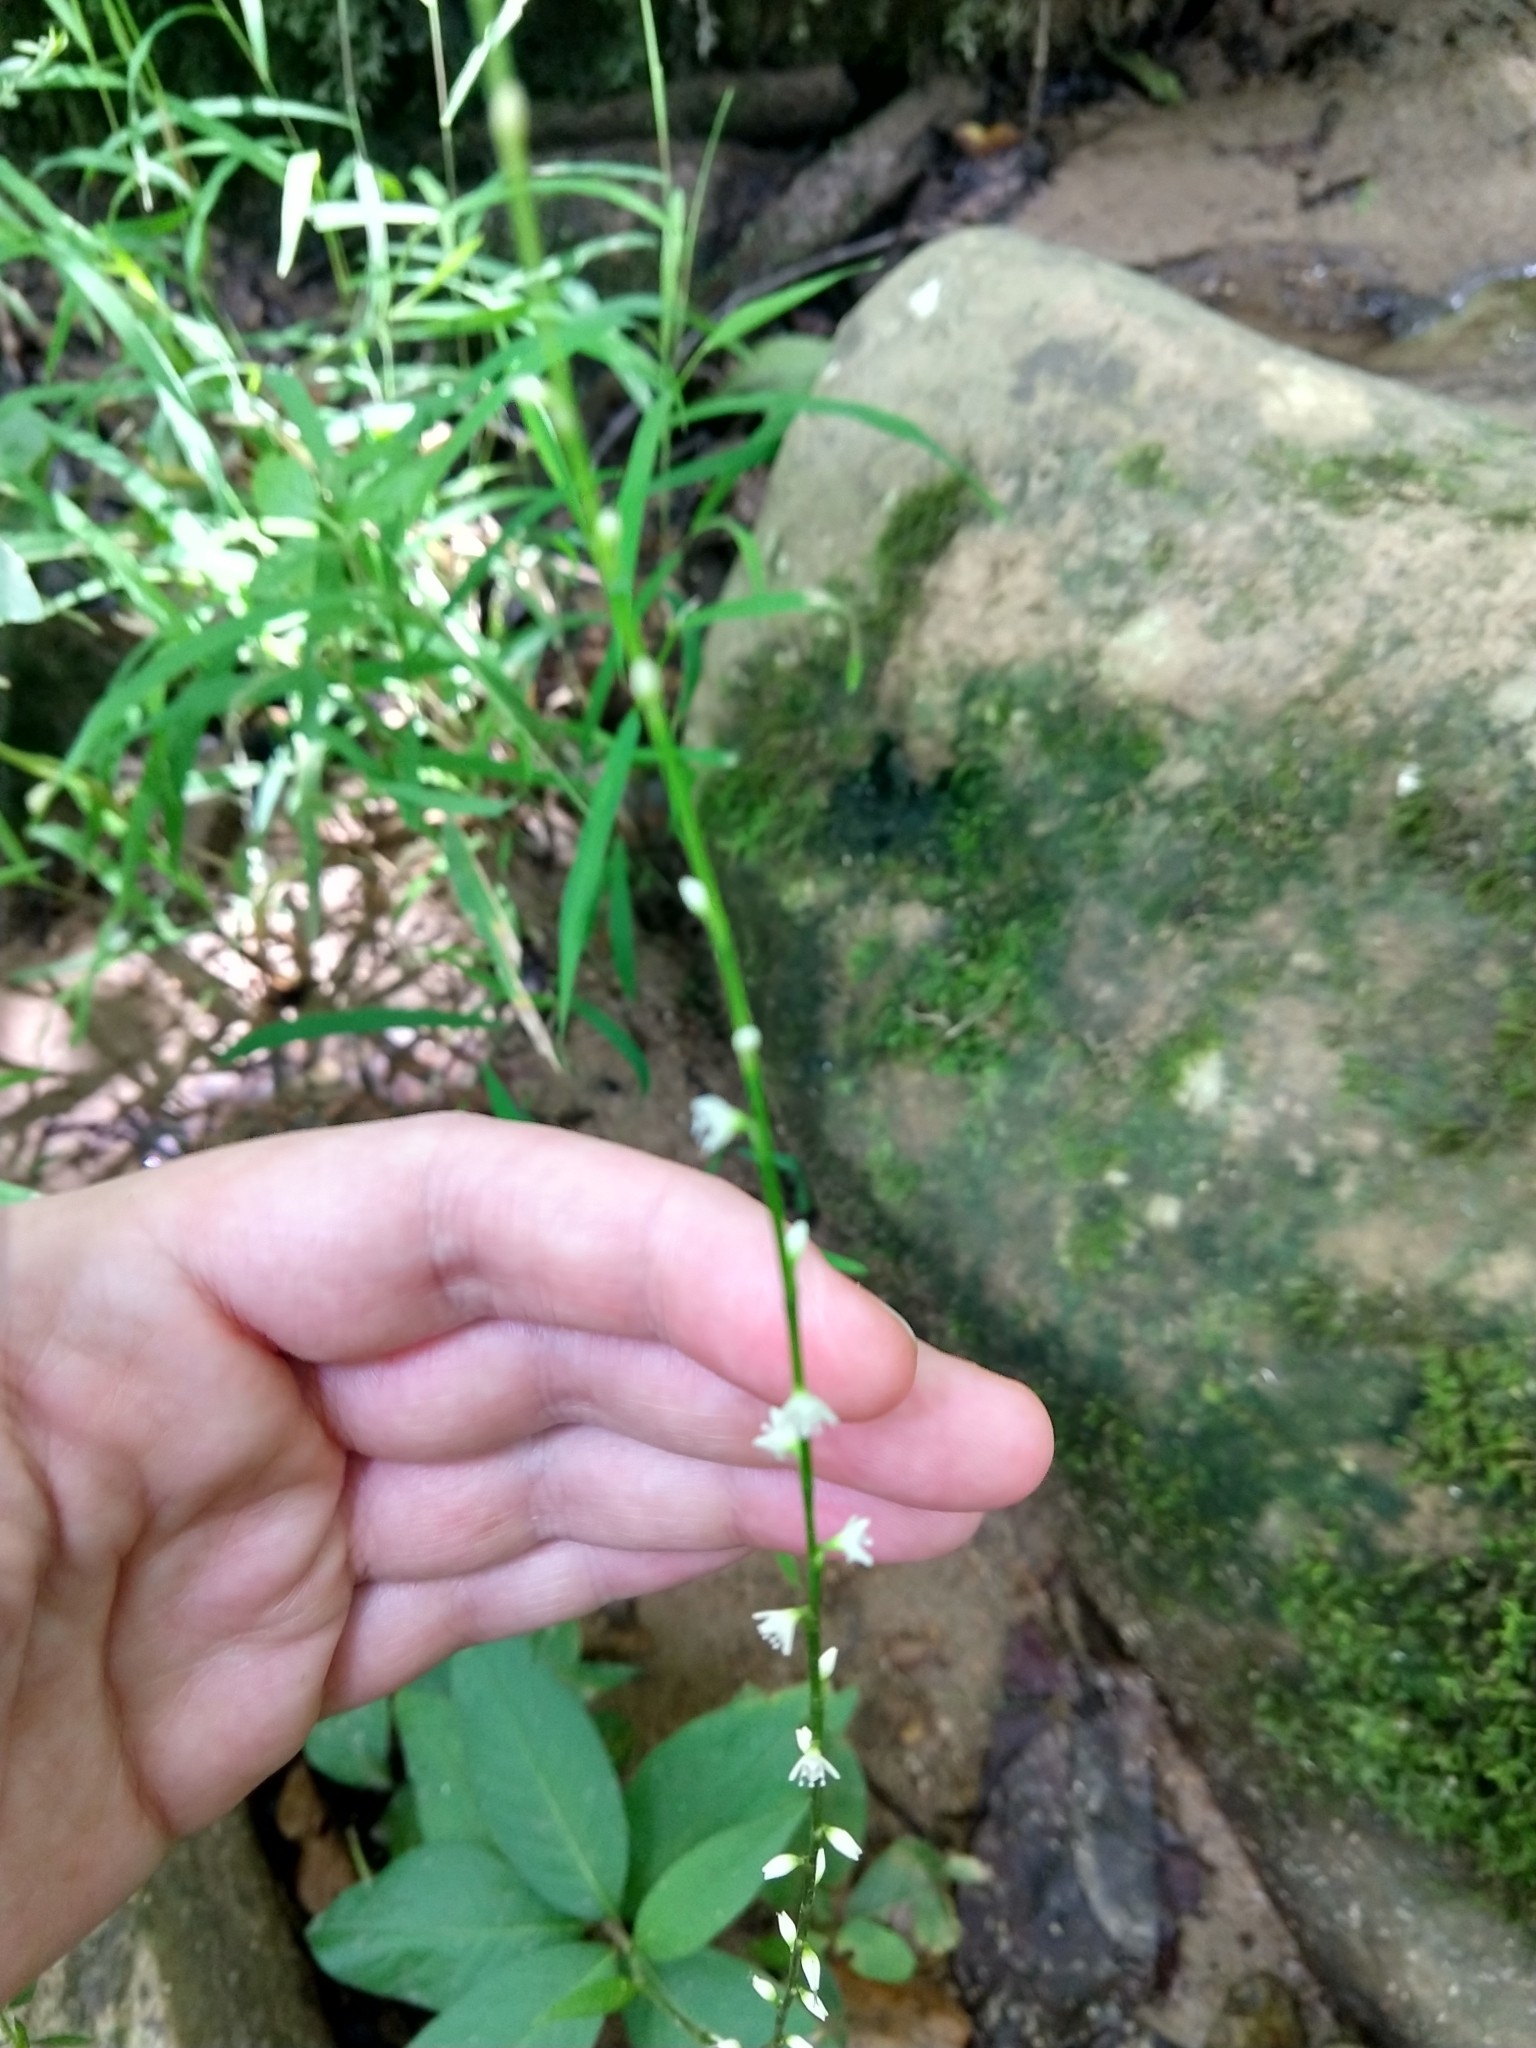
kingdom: Plantae
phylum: Tracheophyta
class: Magnoliopsida
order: Caryophyllales
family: Polygonaceae
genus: Persicaria
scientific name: Persicaria virginiana
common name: Jumpseed
